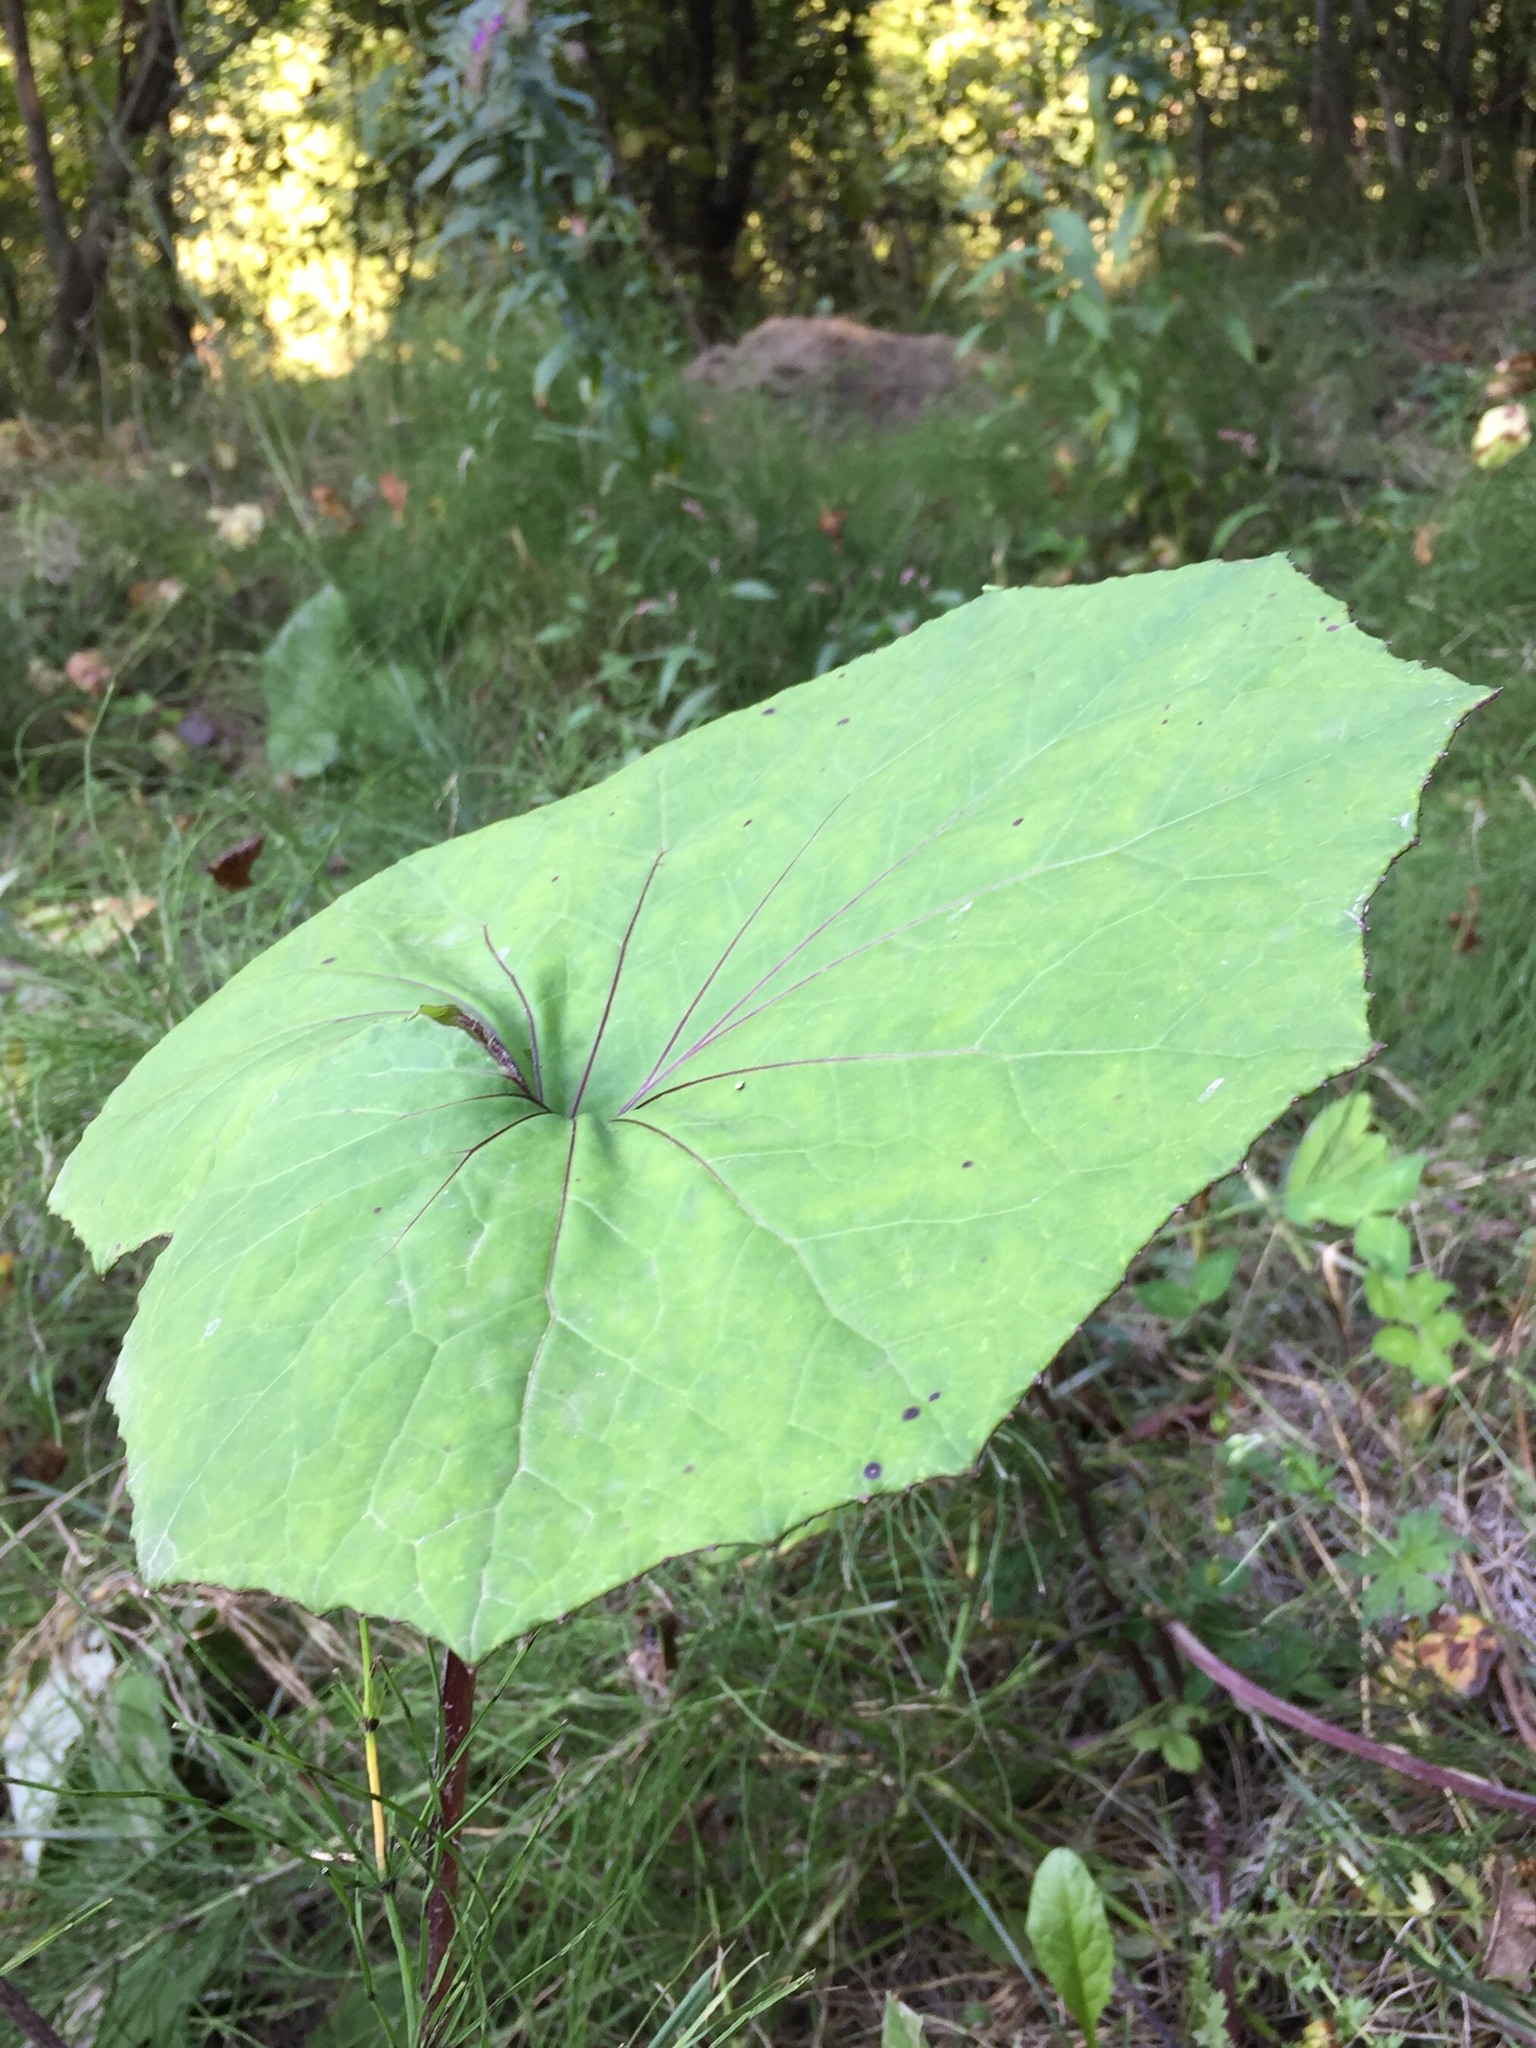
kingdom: Plantae
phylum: Tracheophyta
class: Magnoliopsida
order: Asterales
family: Asteraceae
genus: Tussilago
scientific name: Tussilago farfara
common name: Coltsfoot
